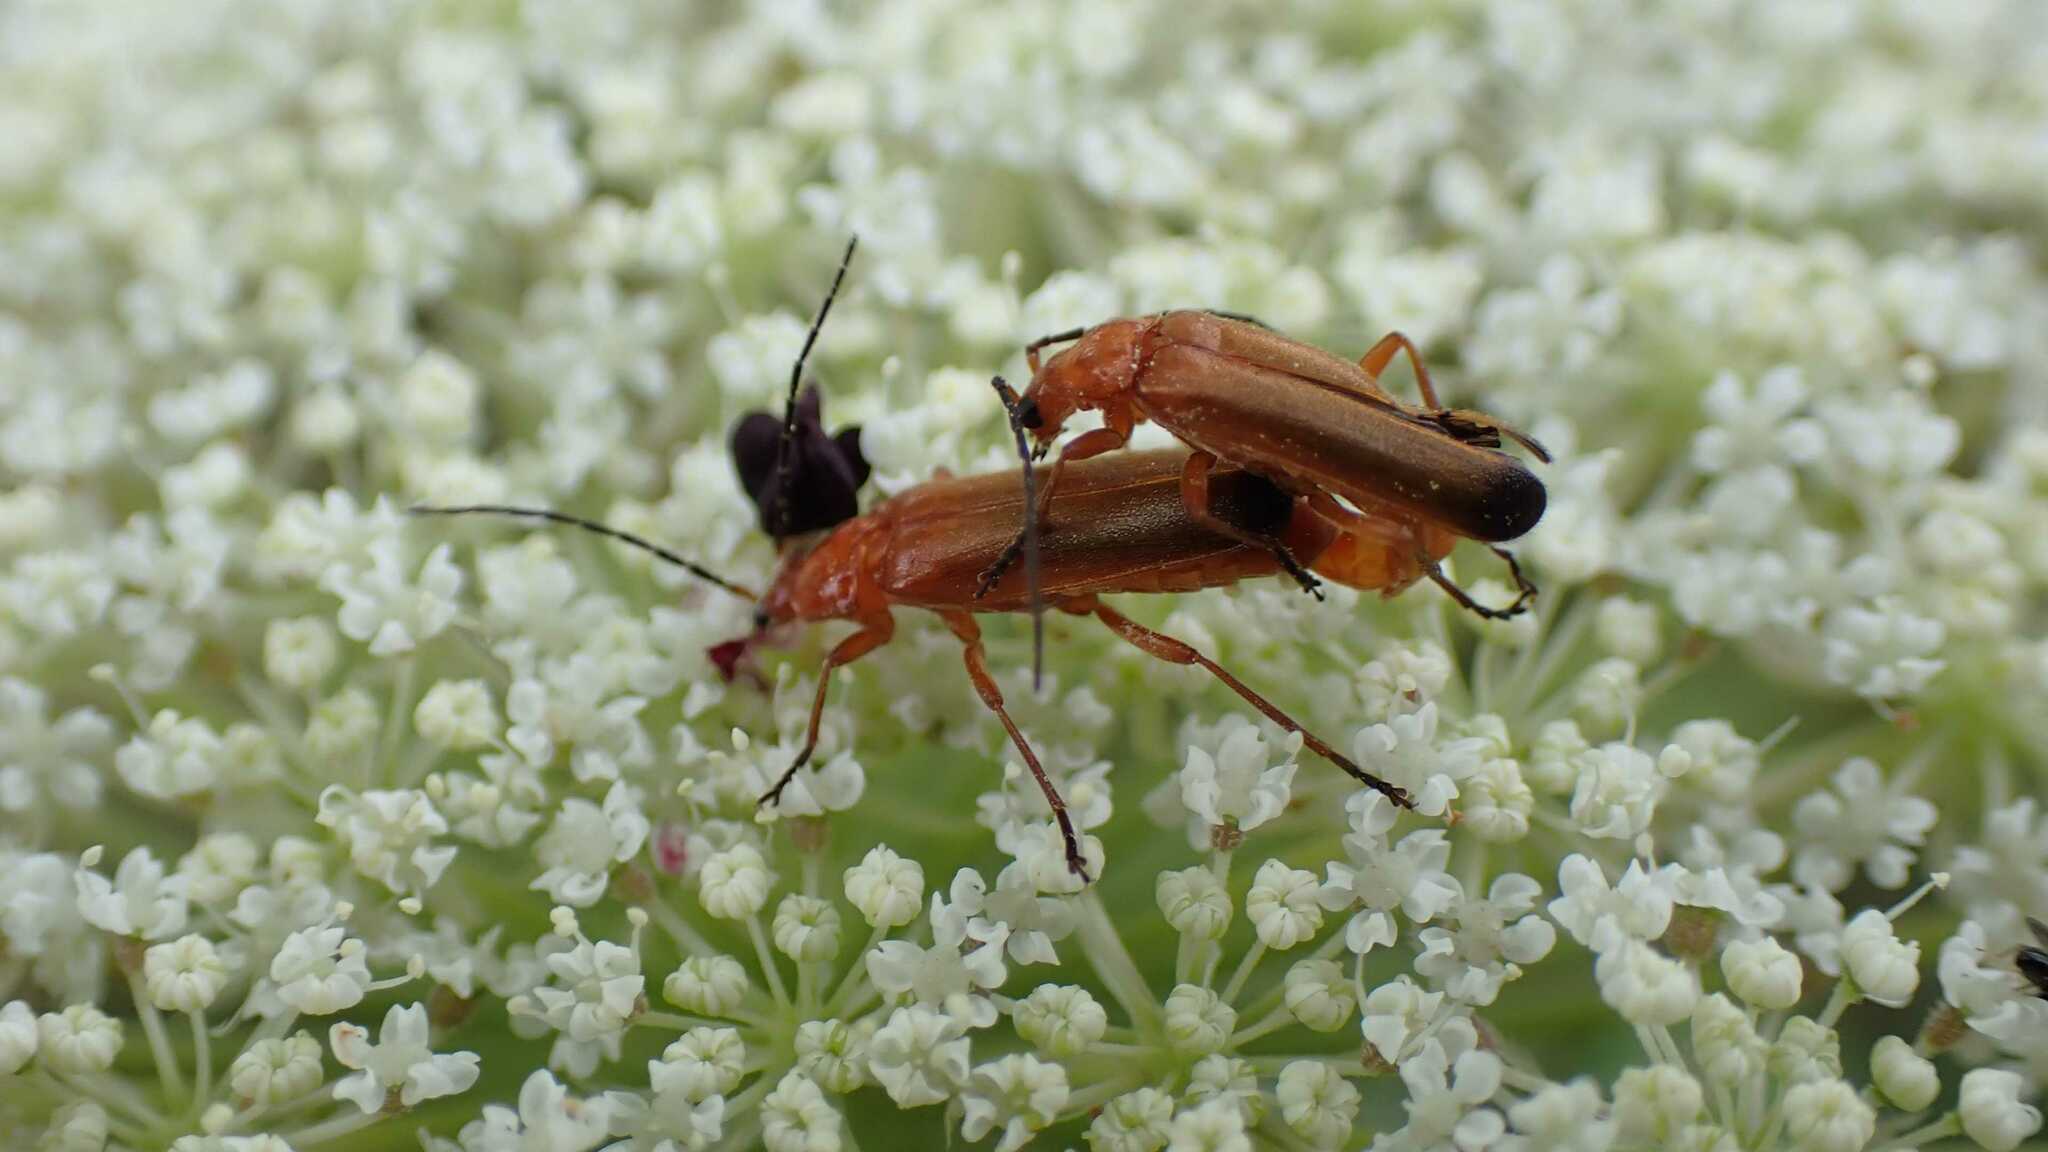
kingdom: Animalia
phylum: Arthropoda
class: Insecta
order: Coleoptera
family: Cantharidae
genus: Rhagonycha
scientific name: Rhagonycha fulva
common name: Common red soldier beetle
